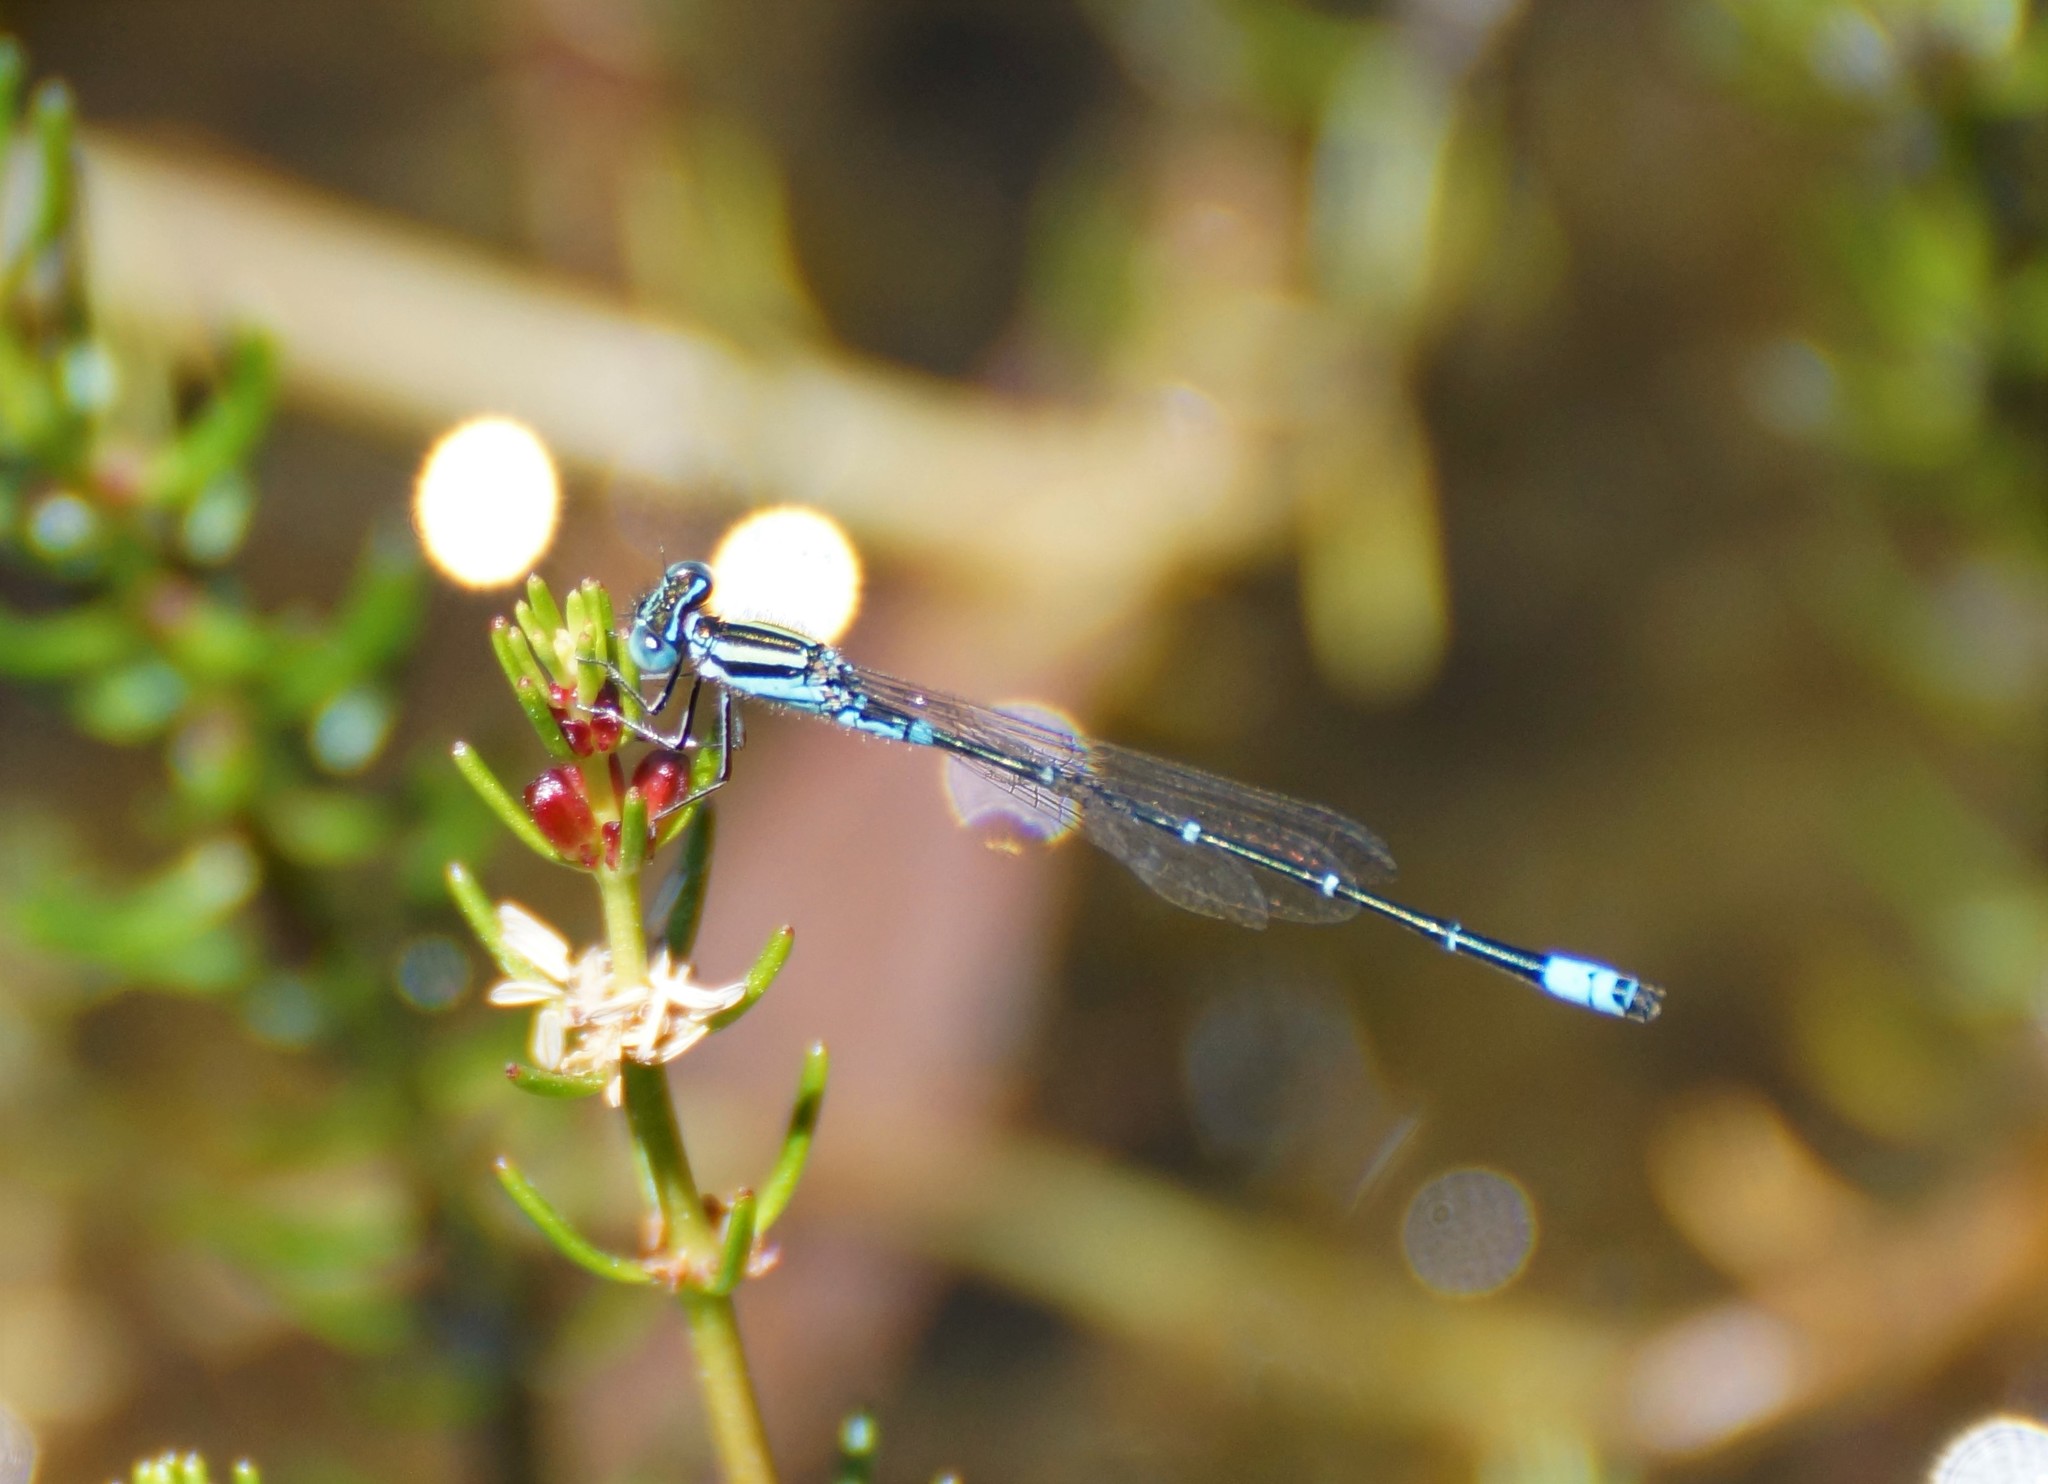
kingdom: Animalia
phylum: Arthropoda
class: Insecta
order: Odonata
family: Coenagrionidae
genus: Austroagrion
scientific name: Austroagrion watsoni
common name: Eastern billabongfly
